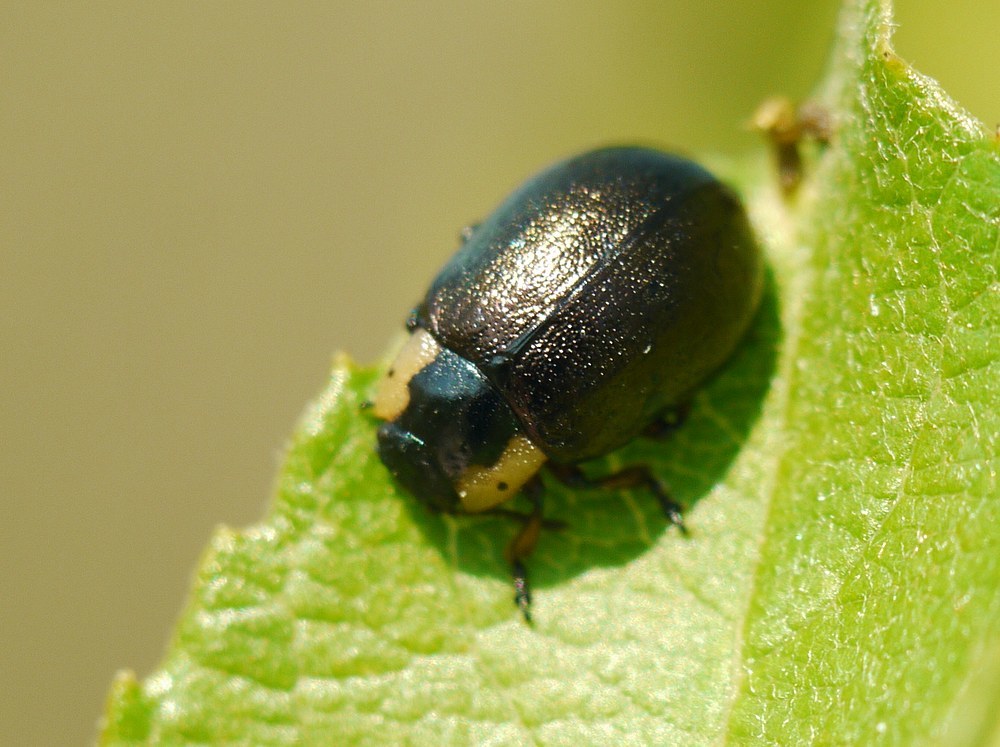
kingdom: Animalia
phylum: Arthropoda
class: Insecta
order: Coleoptera
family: Chrysomelidae
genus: Chrysomela
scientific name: Chrysomela collaris
